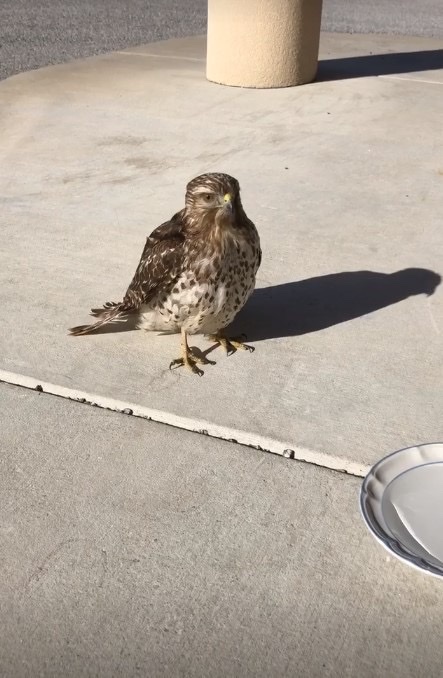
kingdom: Animalia
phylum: Chordata
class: Aves
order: Accipitriformes
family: Accipitridae
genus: Buteo
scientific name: Buteo lineatus
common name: Red-shouldered hawk
